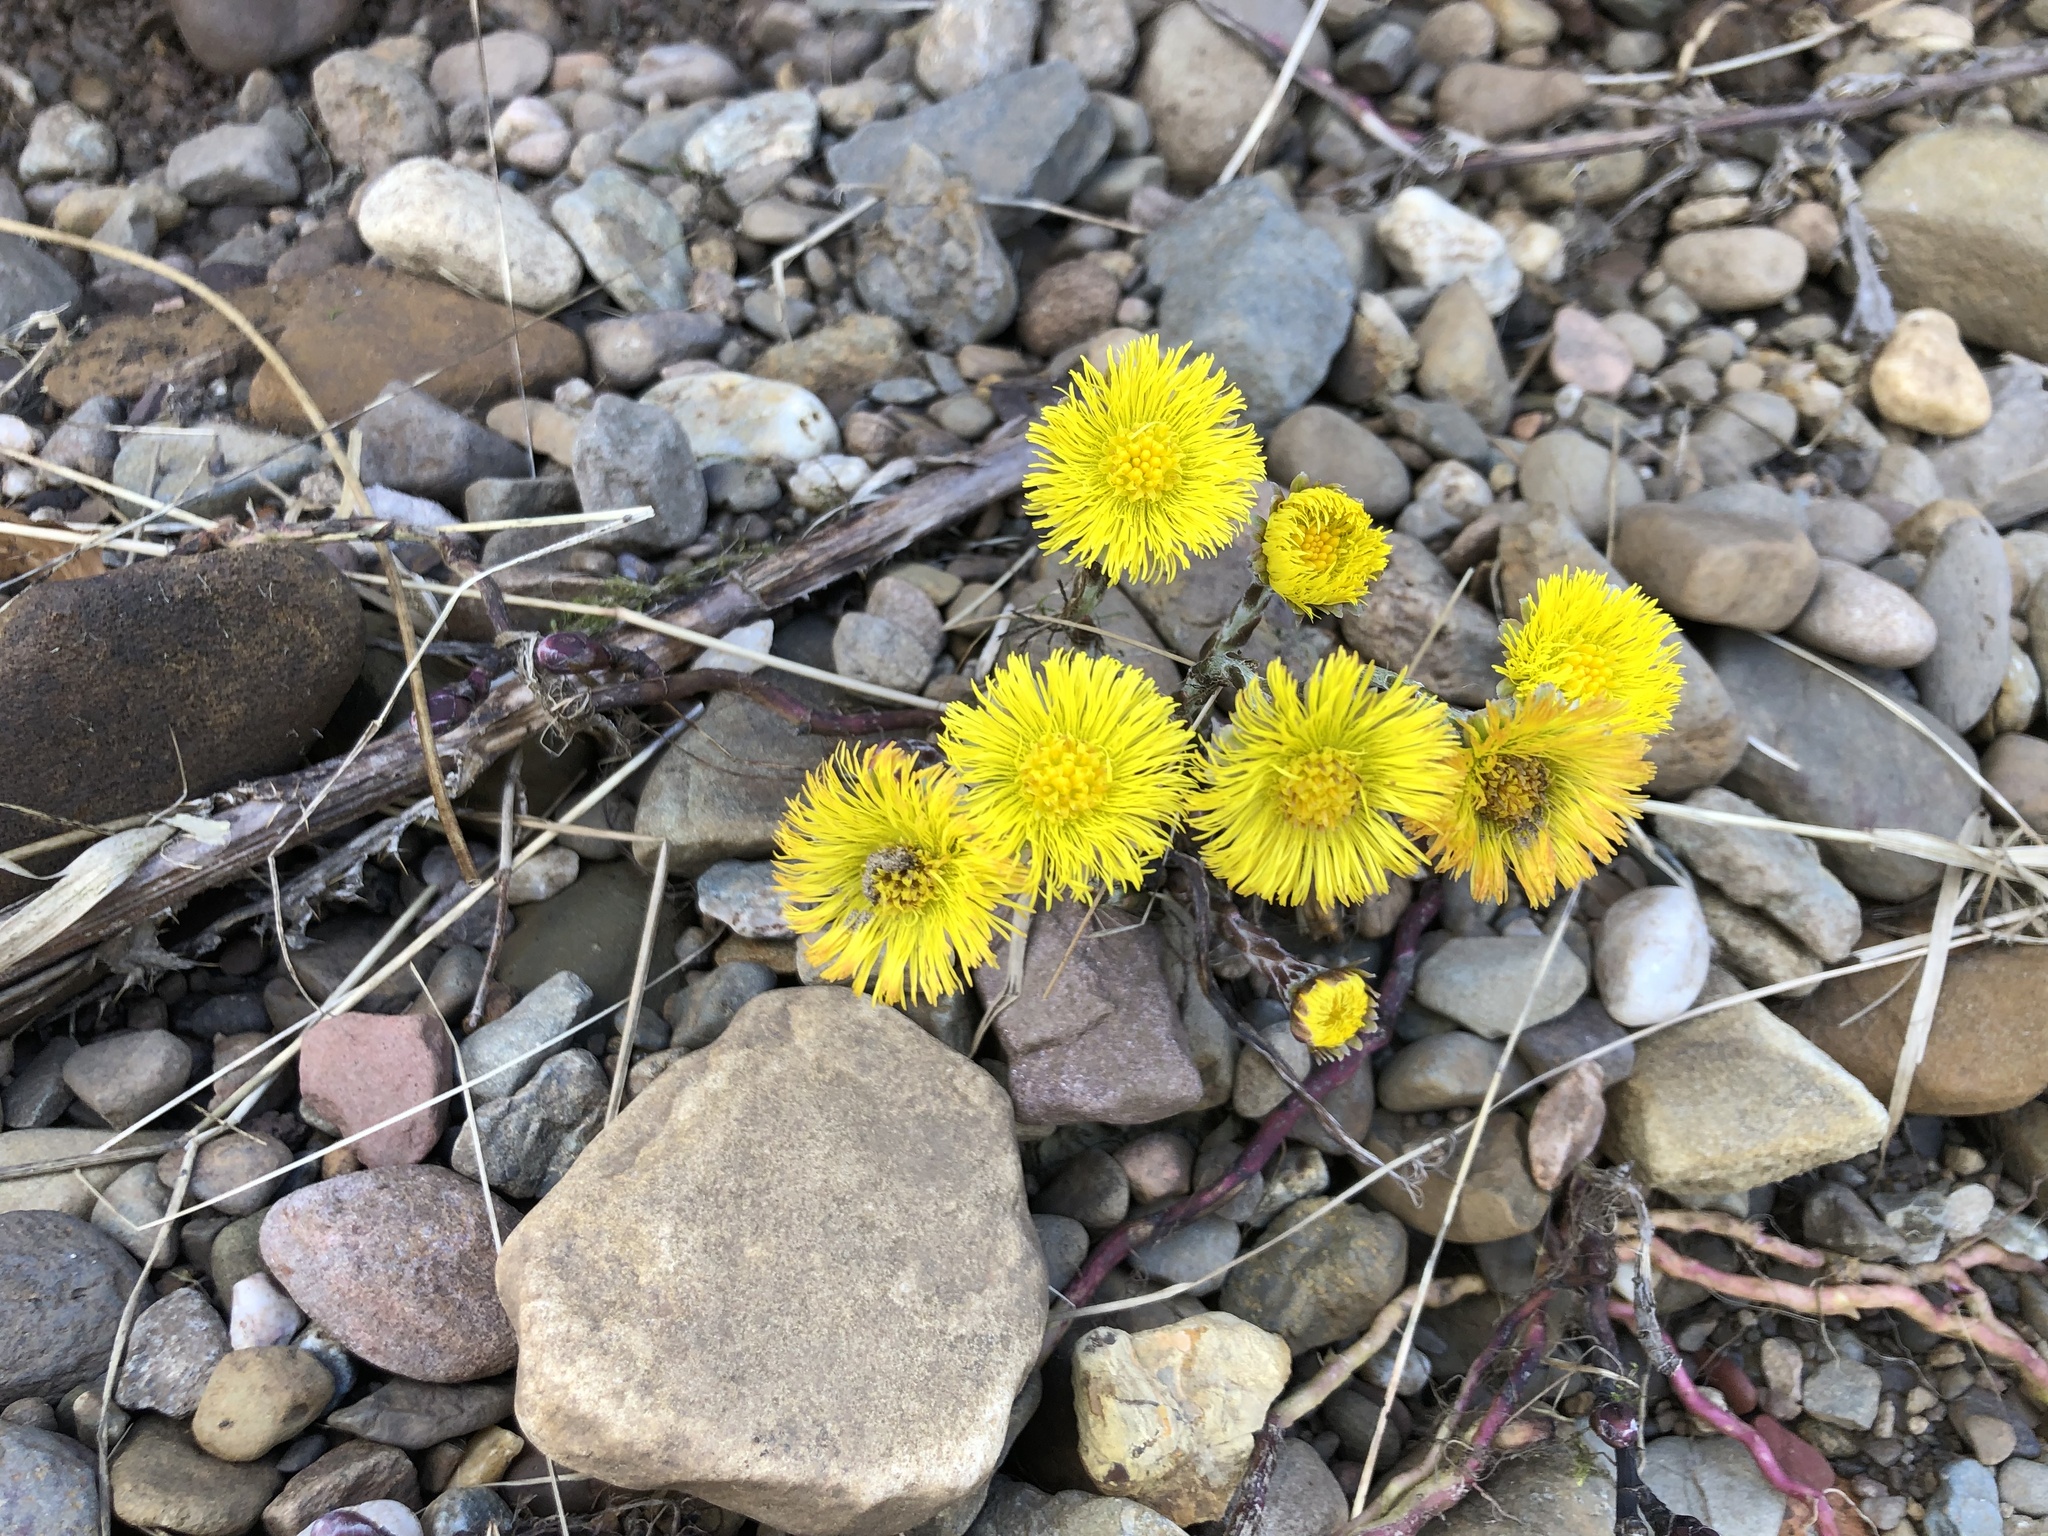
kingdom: Plantae
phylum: Tracheophyta
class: Magnoliopsida
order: Asterales
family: Asteraceae
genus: Tussilago
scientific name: Tussilago farfara
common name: Coltsfoot
